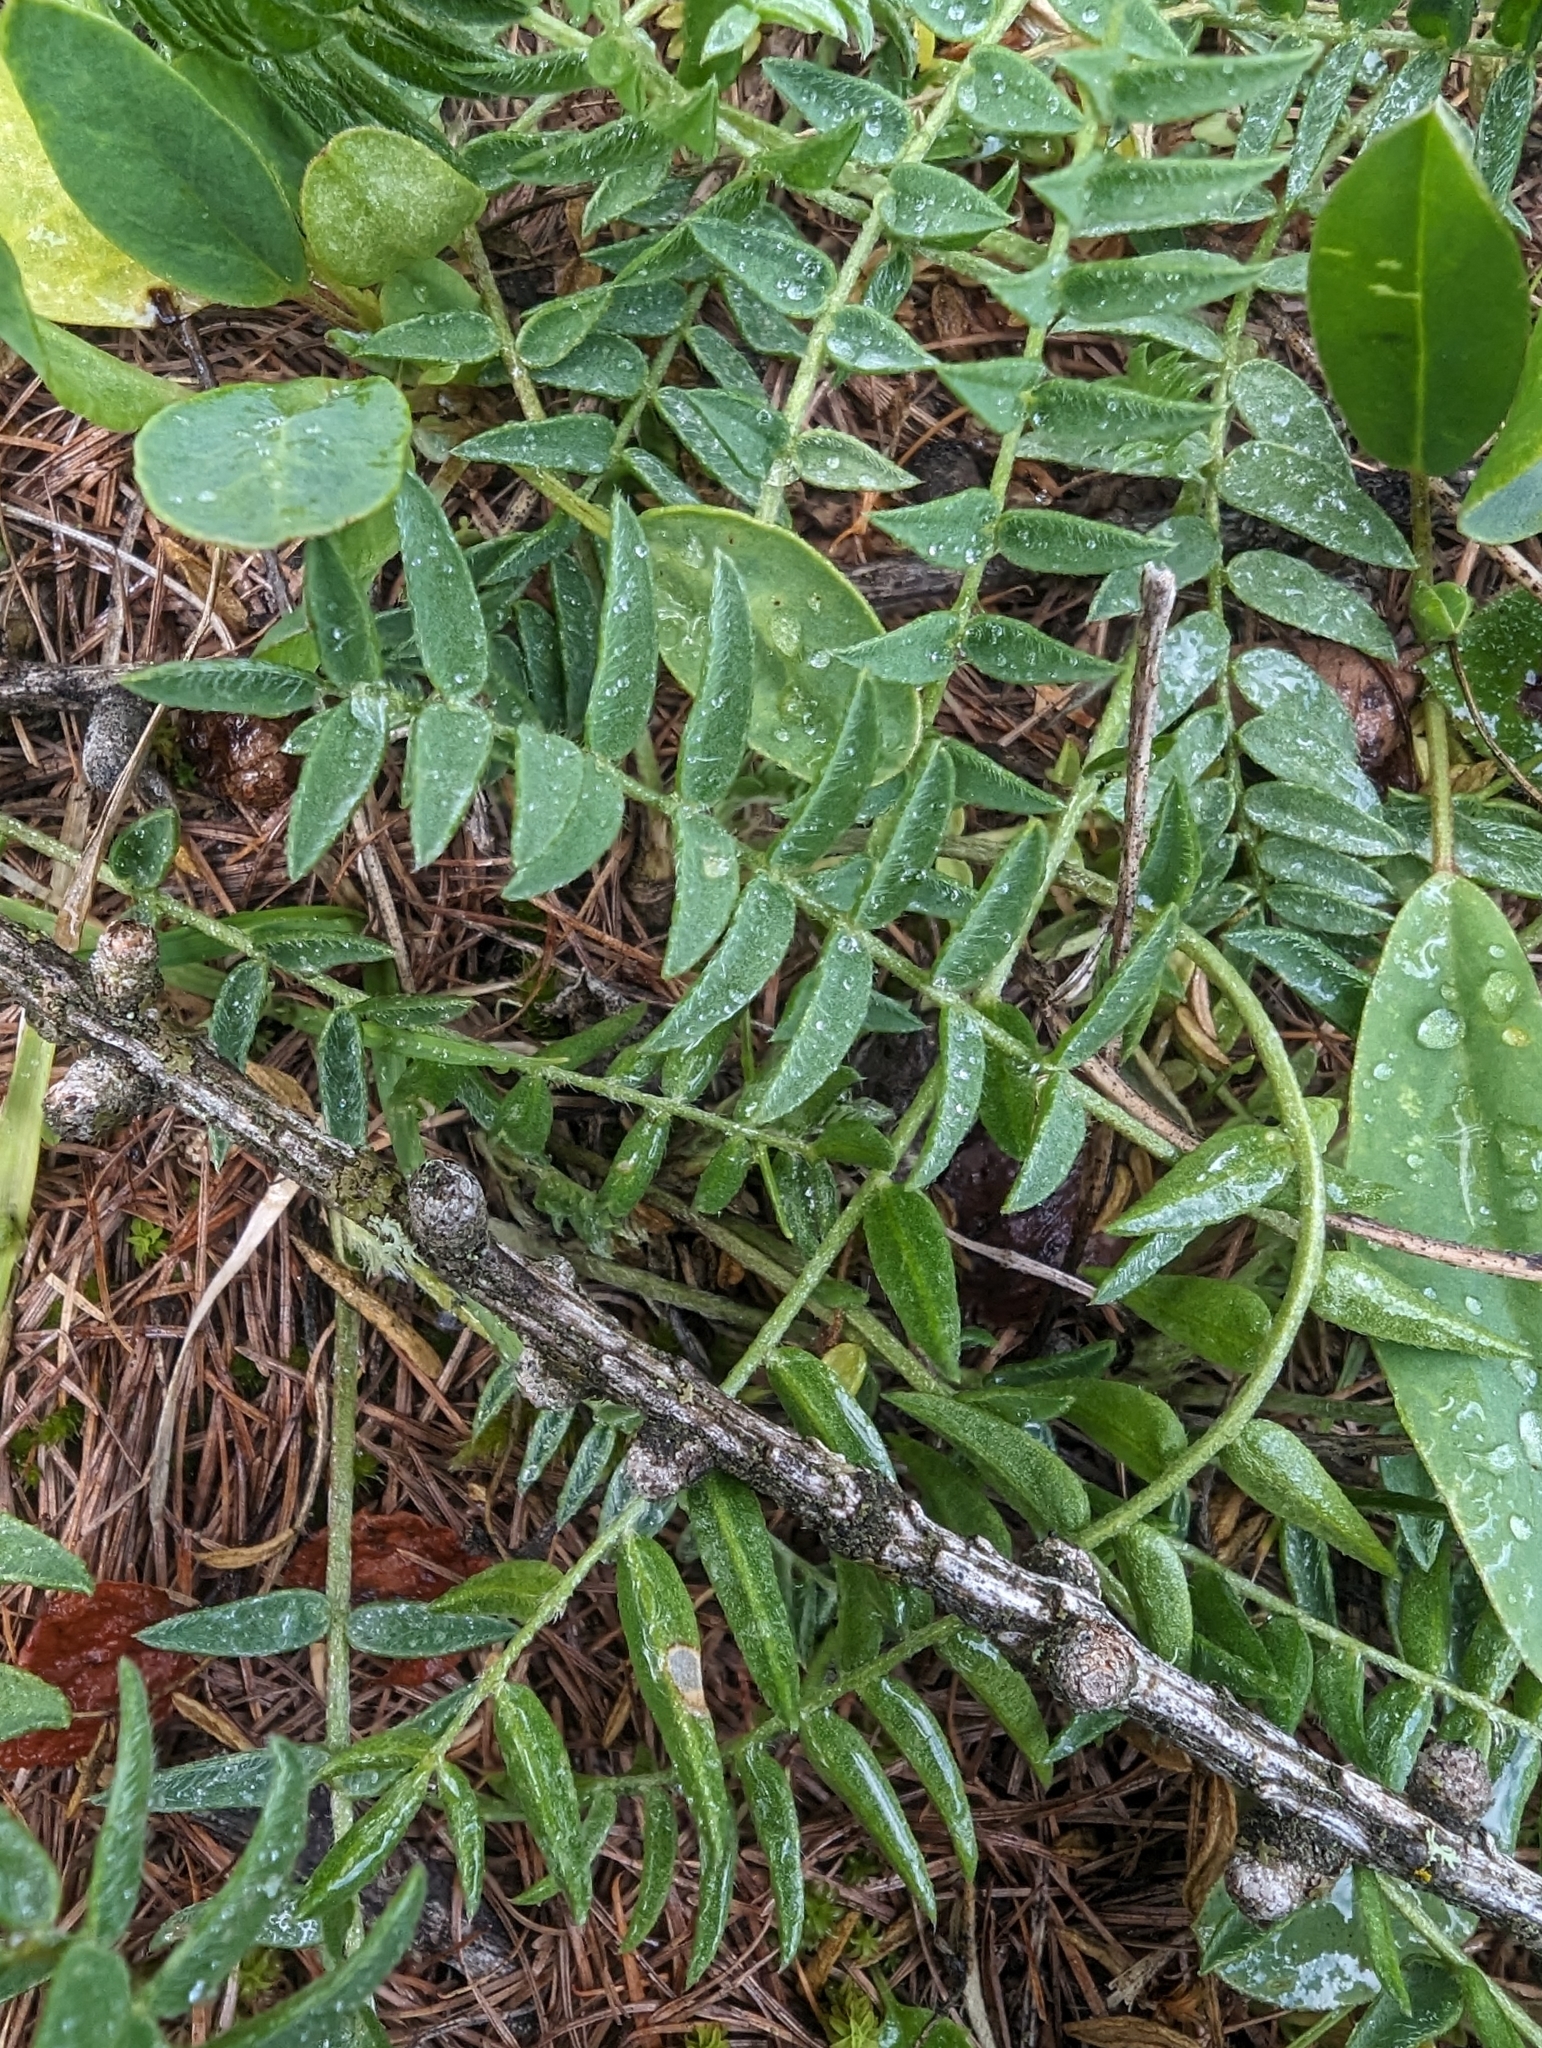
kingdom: Plantae
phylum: Tracheophyta
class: Magnoliopsida
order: Fabales
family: Fabaceae
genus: Oxytropis
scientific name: Oxytropis campestris
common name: Field locoweed
